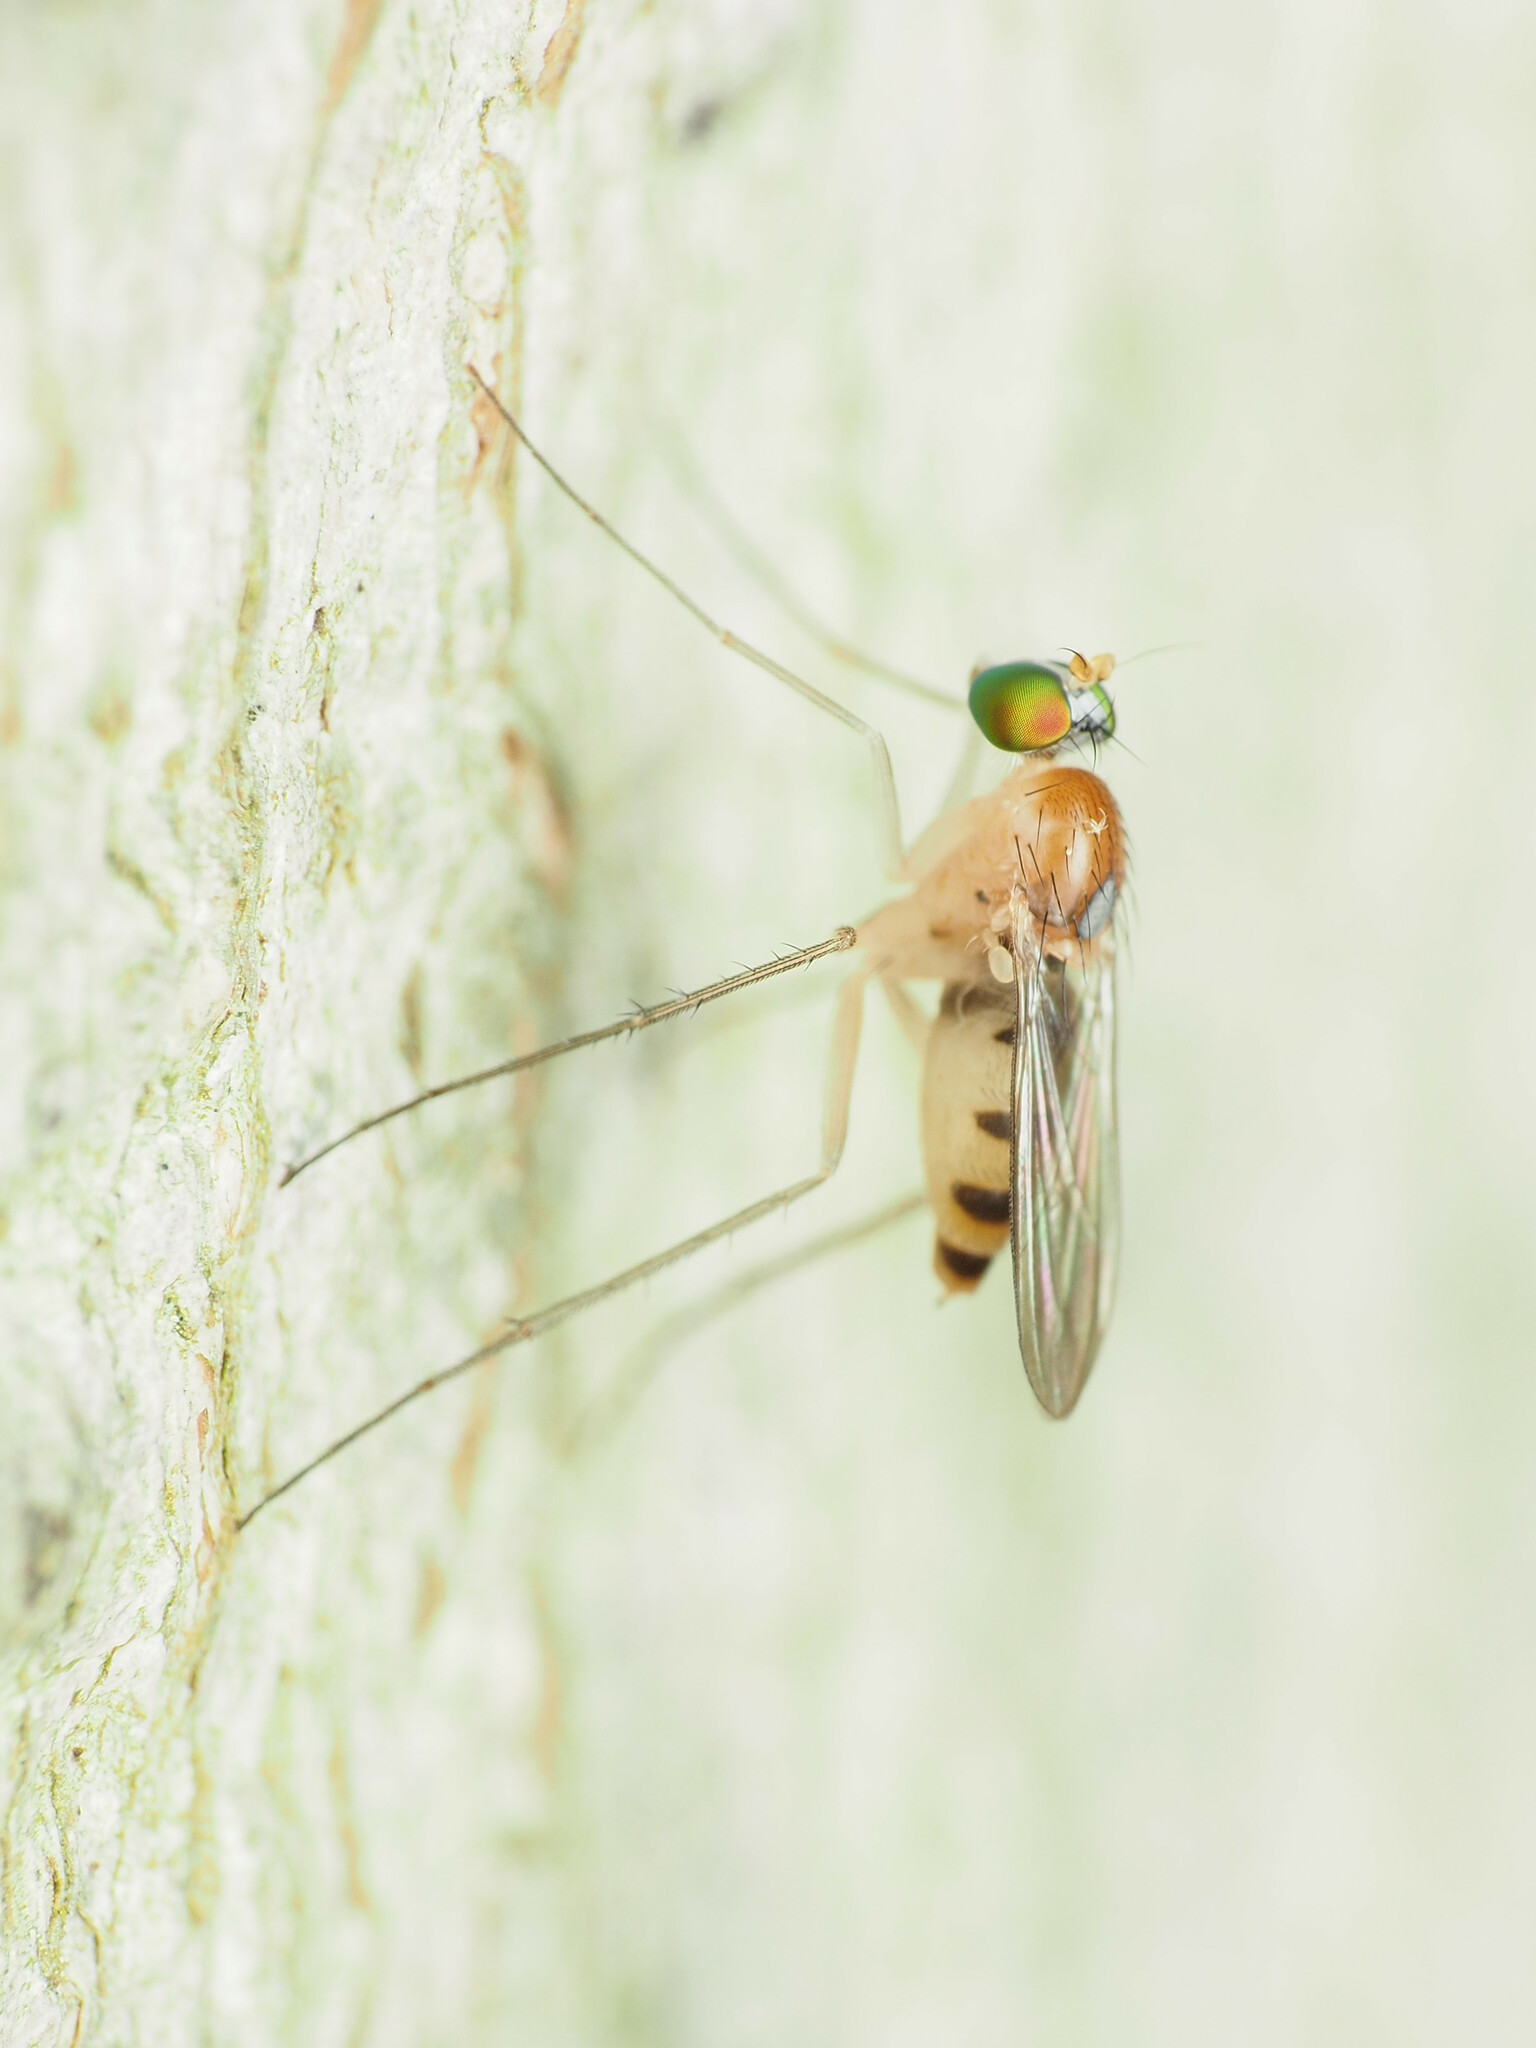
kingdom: Animalia
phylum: Arthropoda
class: Insecta
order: Diptera
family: Dolichopodidae
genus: Neurigona
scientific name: Neurigona disjuncta
